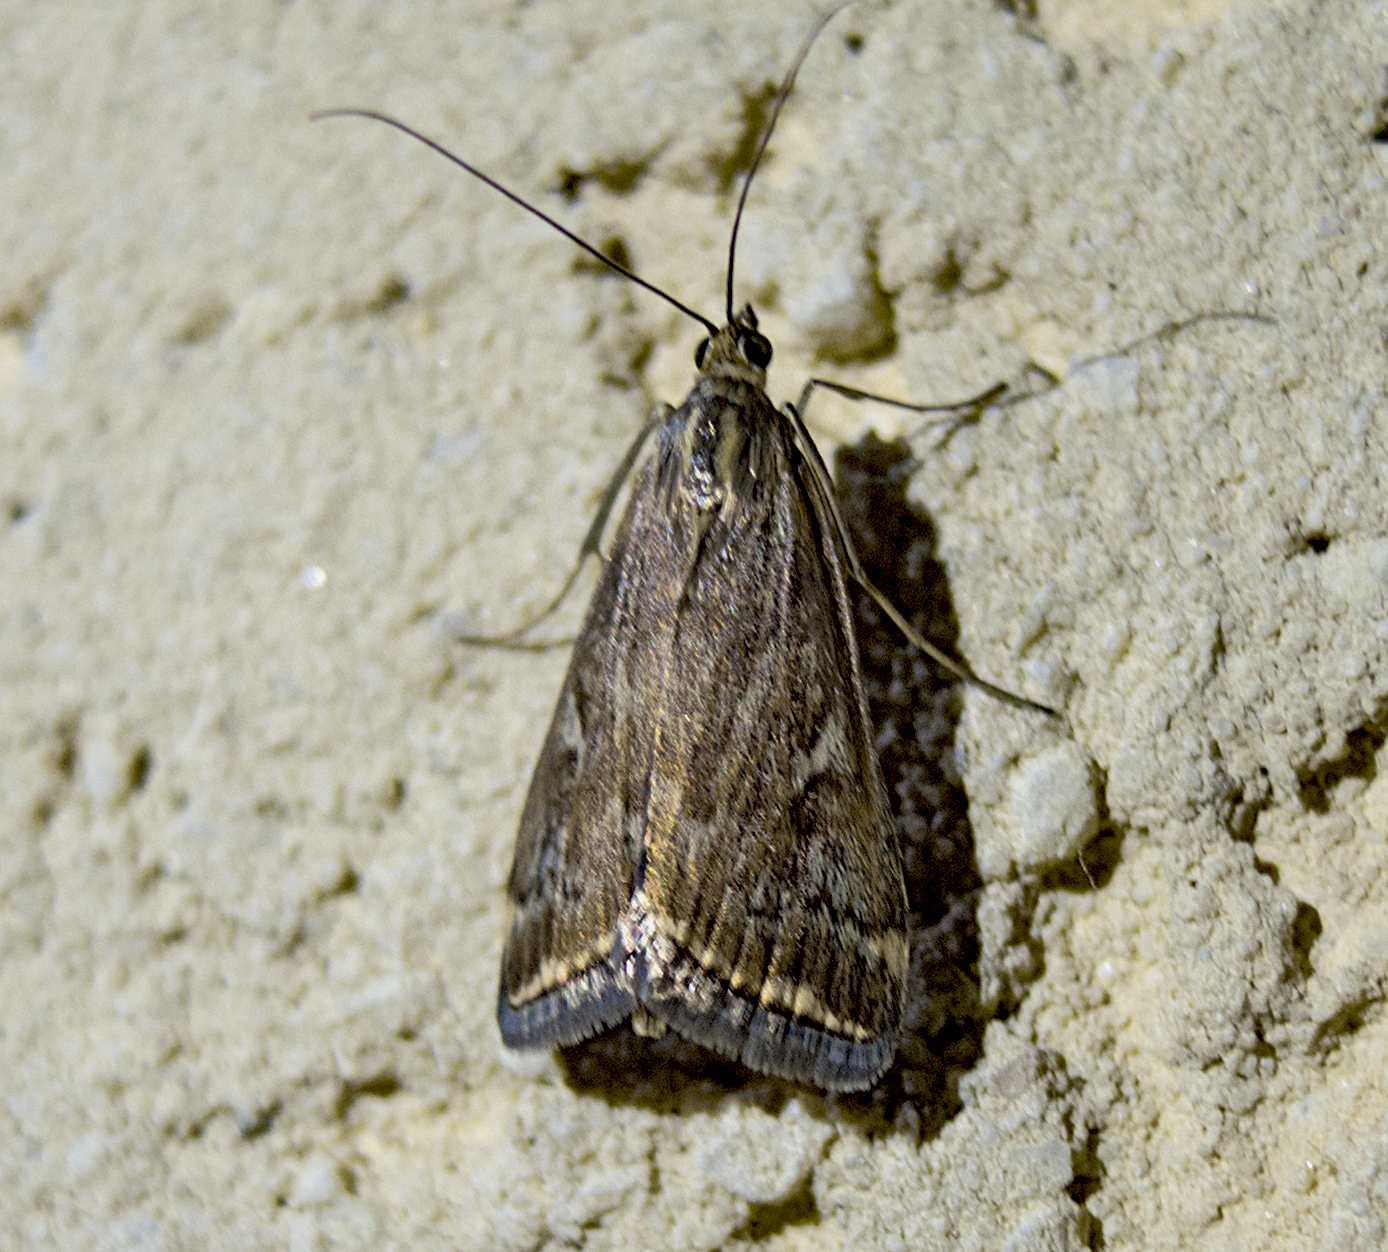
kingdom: Animalia
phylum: Arthropoda
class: Insecta
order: Lepidoptera
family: Crambidae
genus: Loxostege
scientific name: Loxostege sticticalis
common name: Crambid moth
